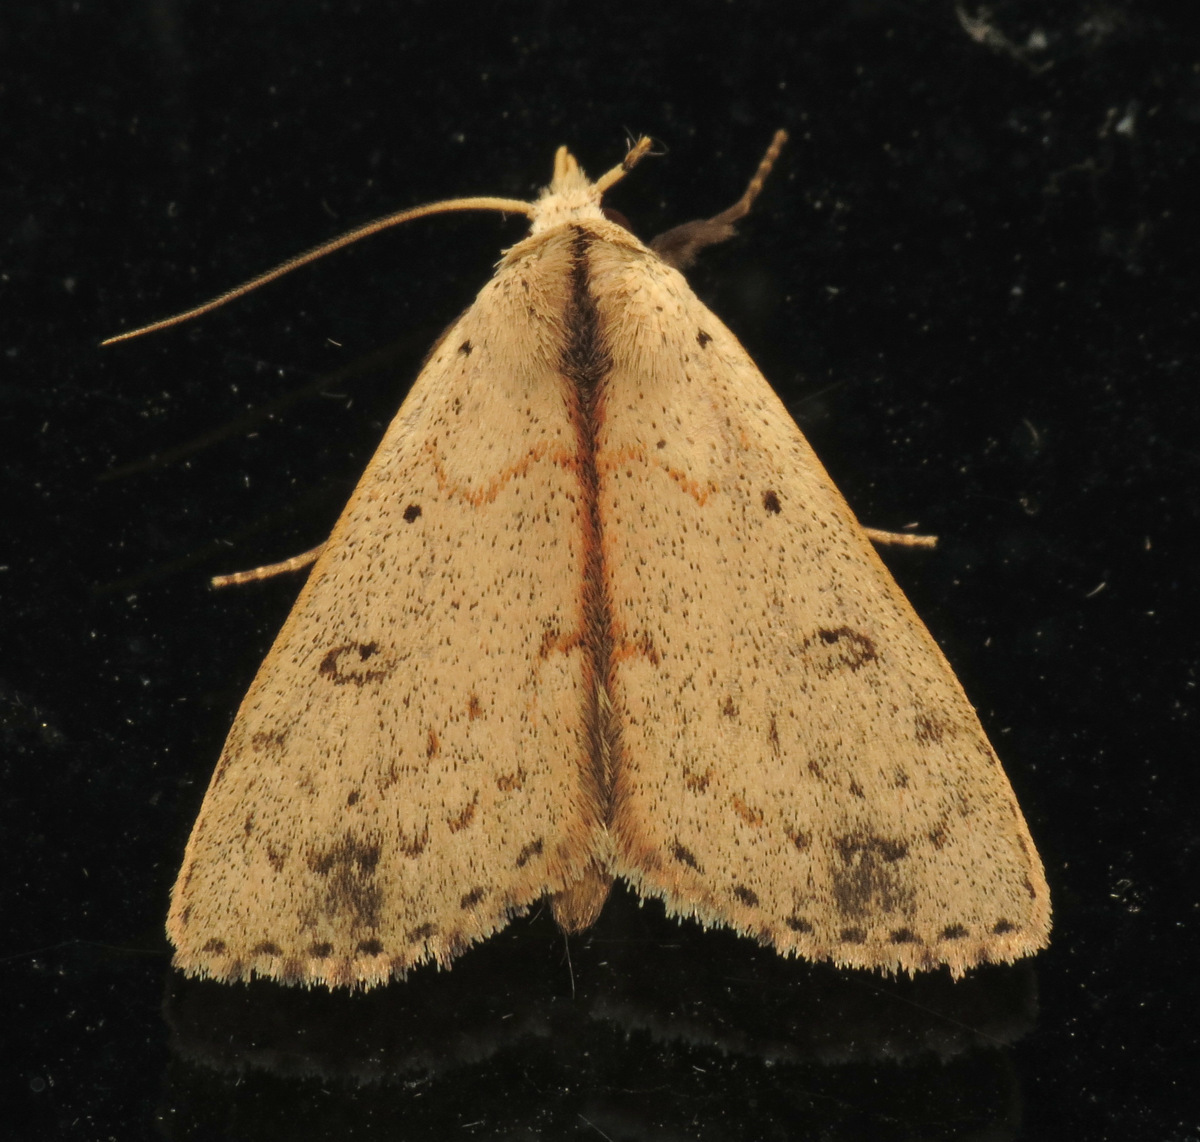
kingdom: Animalia
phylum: Arthropoda
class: Insecta
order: Lepidoptera
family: Erebidae
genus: Scolecocampa
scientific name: Scolecocampa liburna
